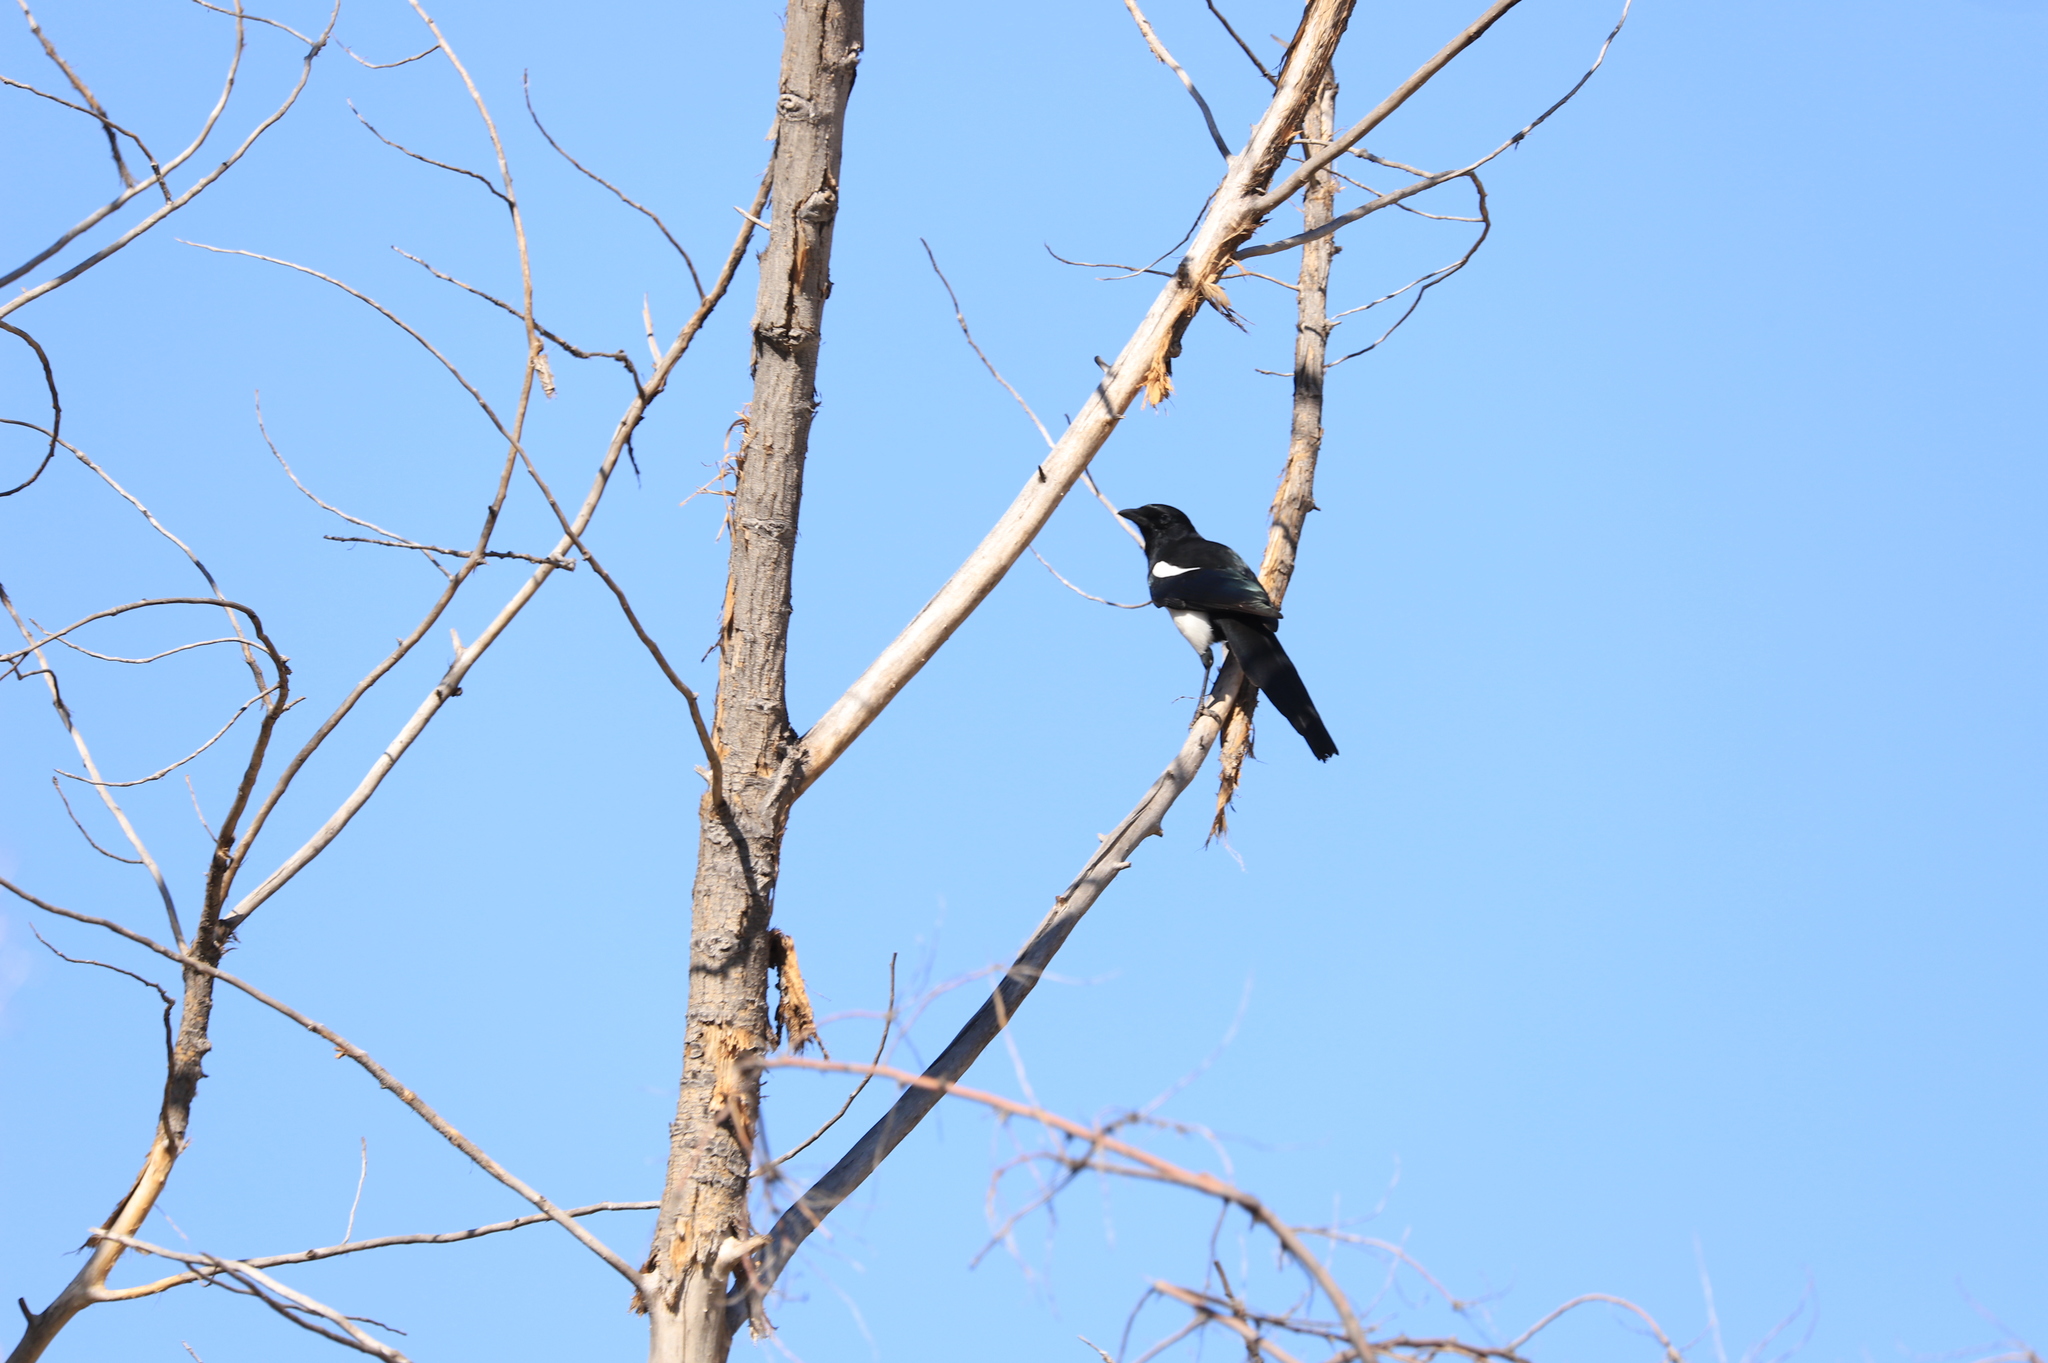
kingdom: Animalia
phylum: Chordata
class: Aves
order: Passeriformes
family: Corvidae
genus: Pica
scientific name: Pica hudsonia
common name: Black-billed magpie
